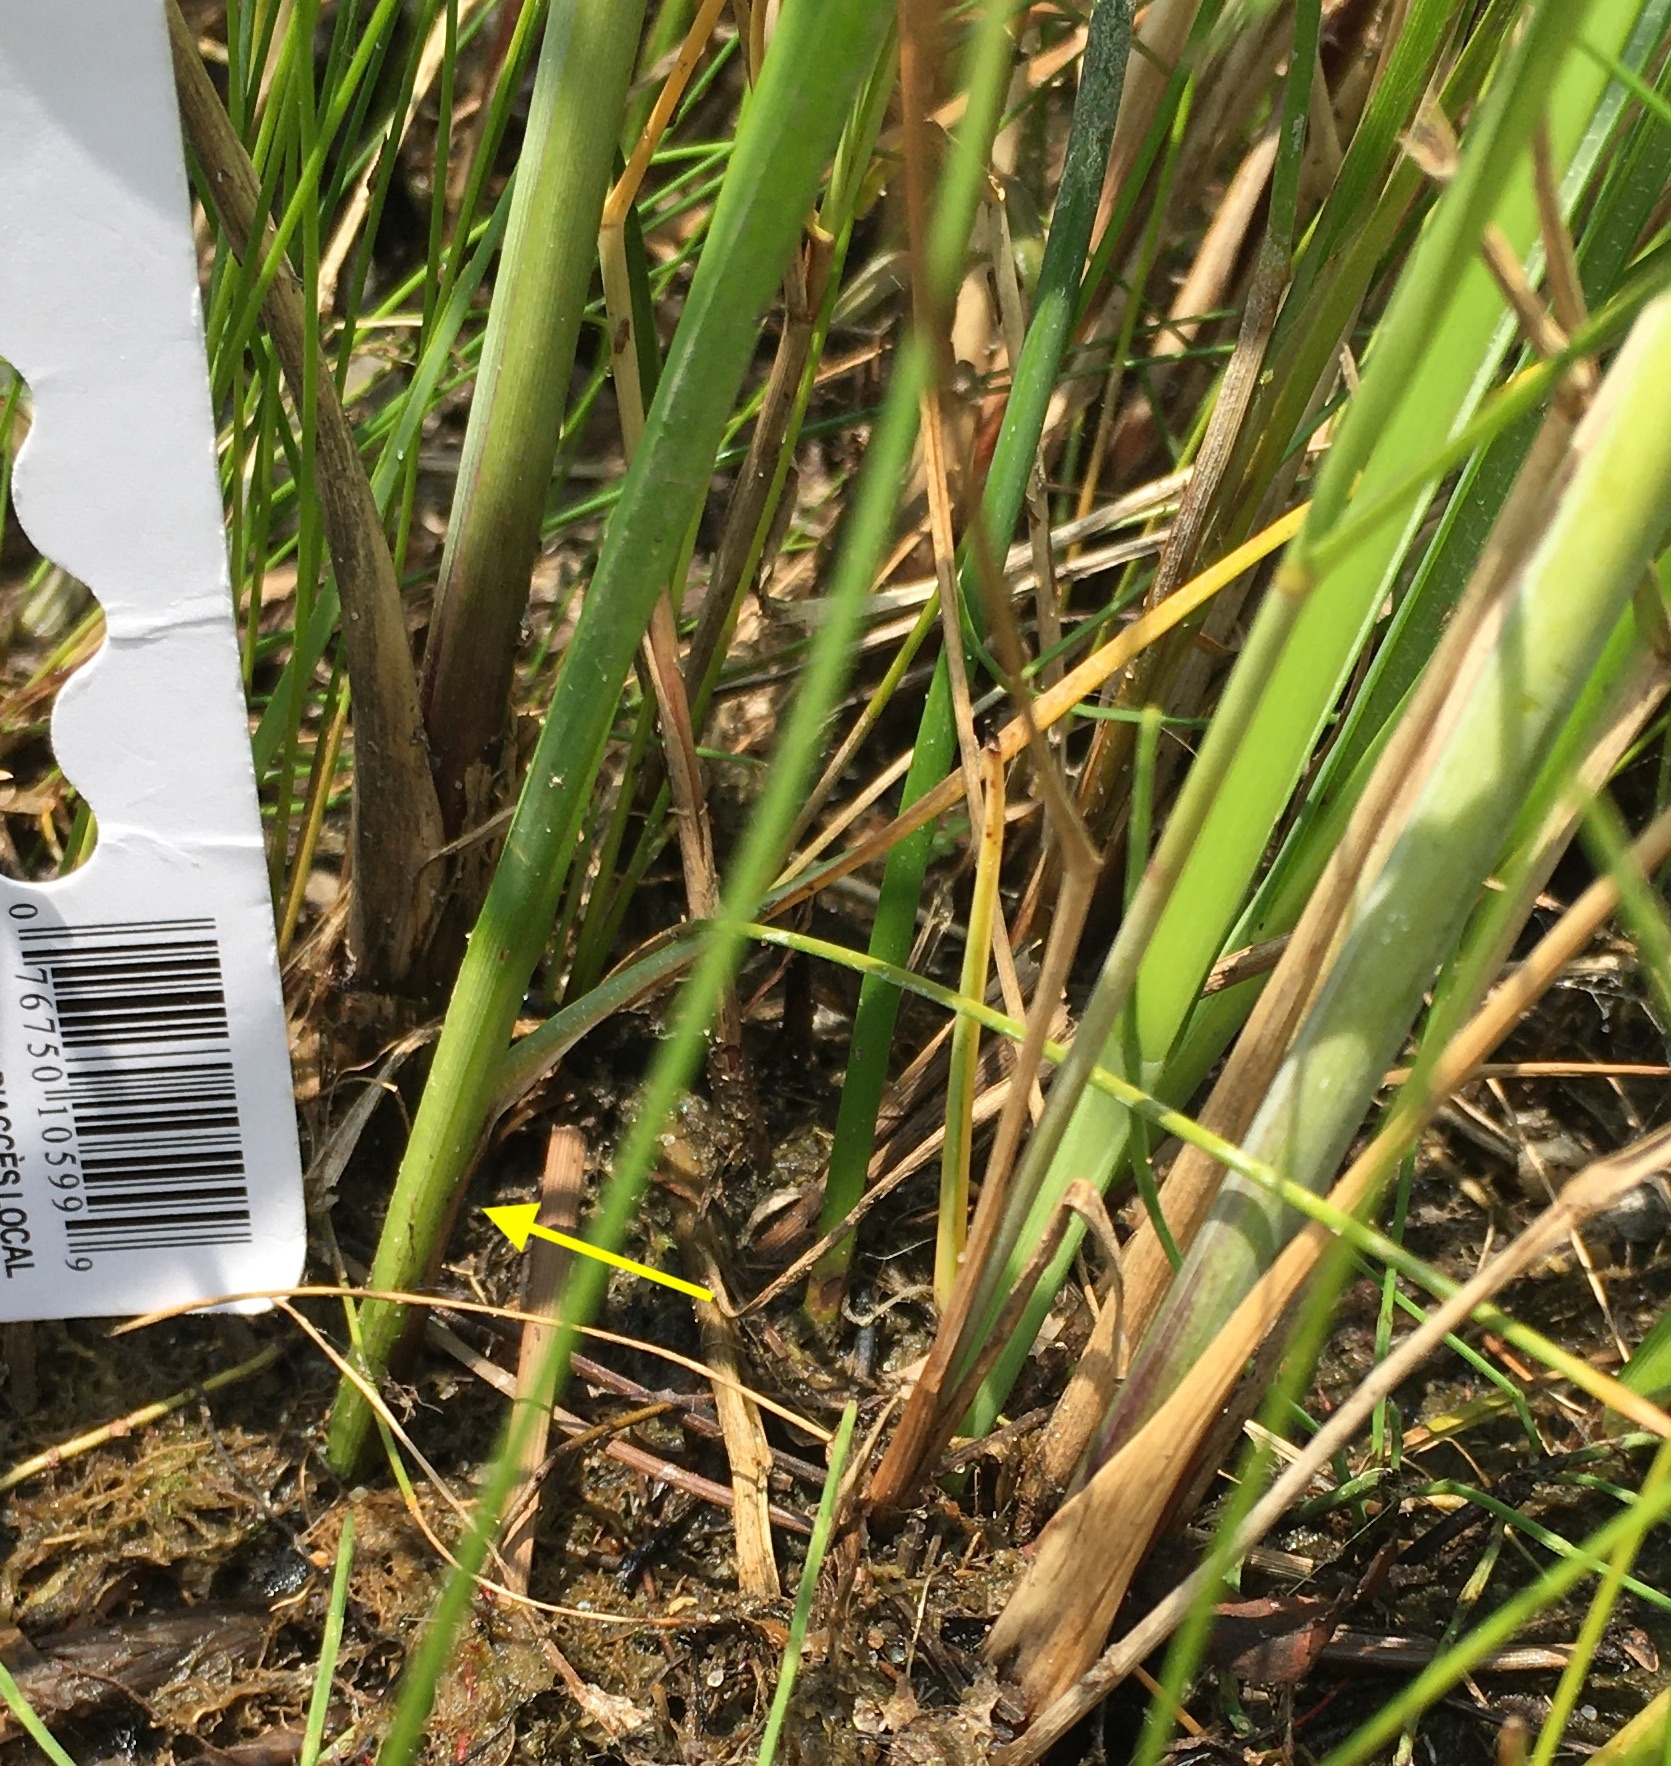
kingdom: Plantae
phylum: Tracheophyta
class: Liliopsida
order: Poales
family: Cyperaceae
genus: Schoenoplectus
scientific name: Schoenoplectus pungens
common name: Sharp club-rush
